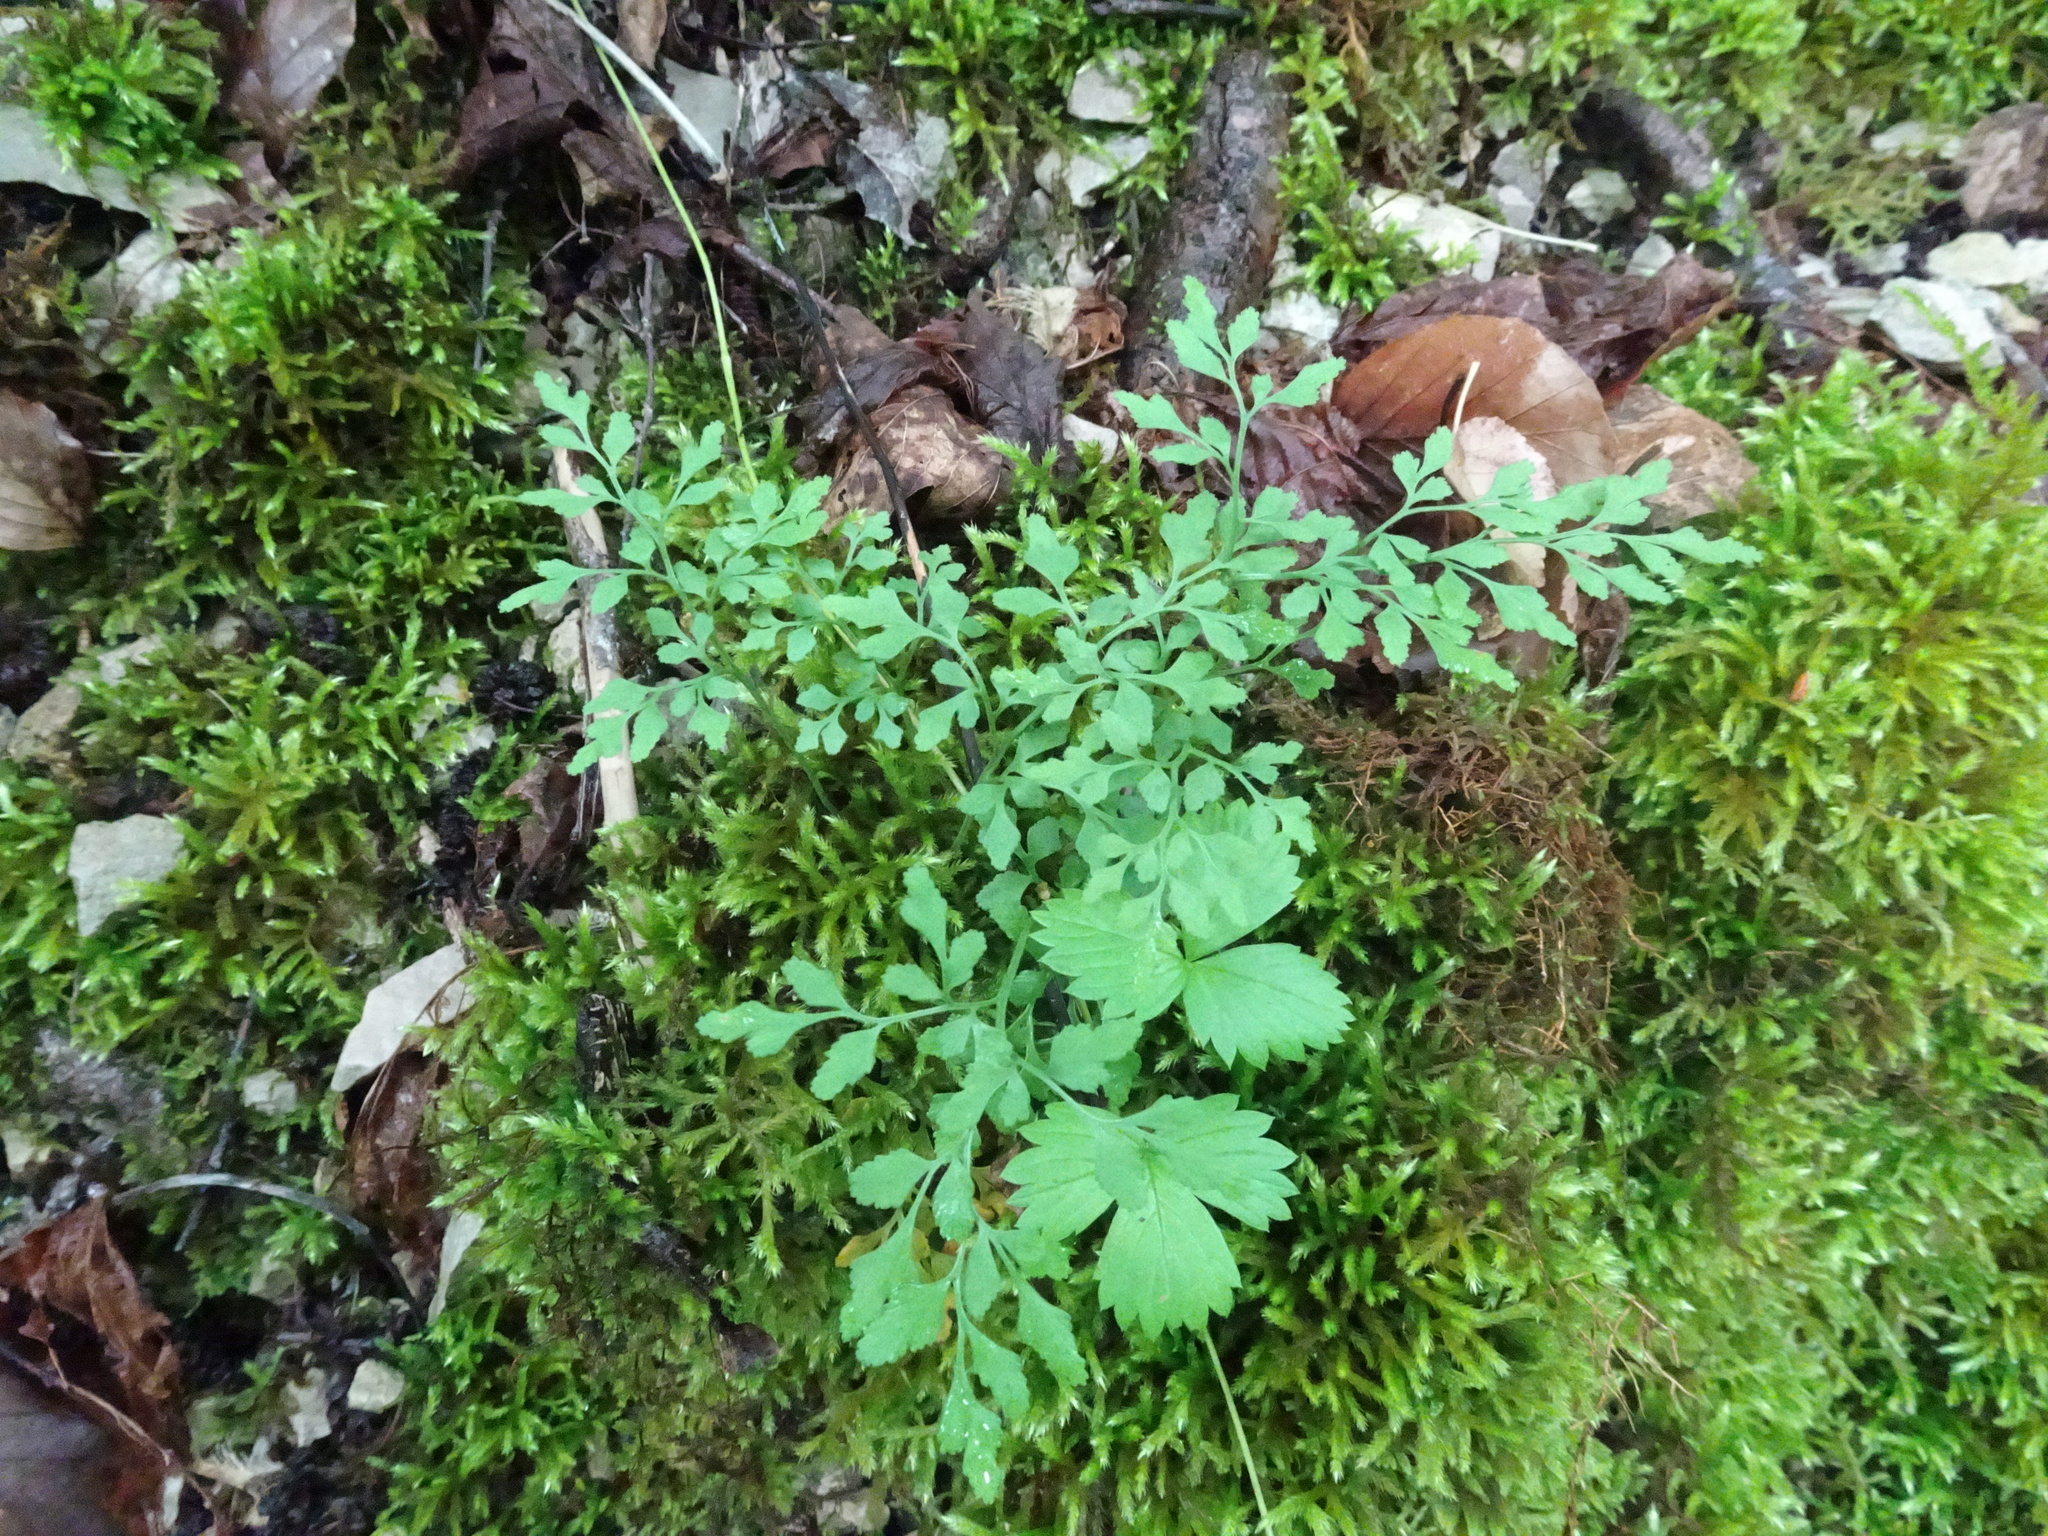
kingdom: Plantae
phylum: Tracheophyta
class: Polypodiopsida
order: Polypodiales
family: Aspleniaceae
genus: Asplenium
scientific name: Asplenium ruta-muraria
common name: Wall-rue
